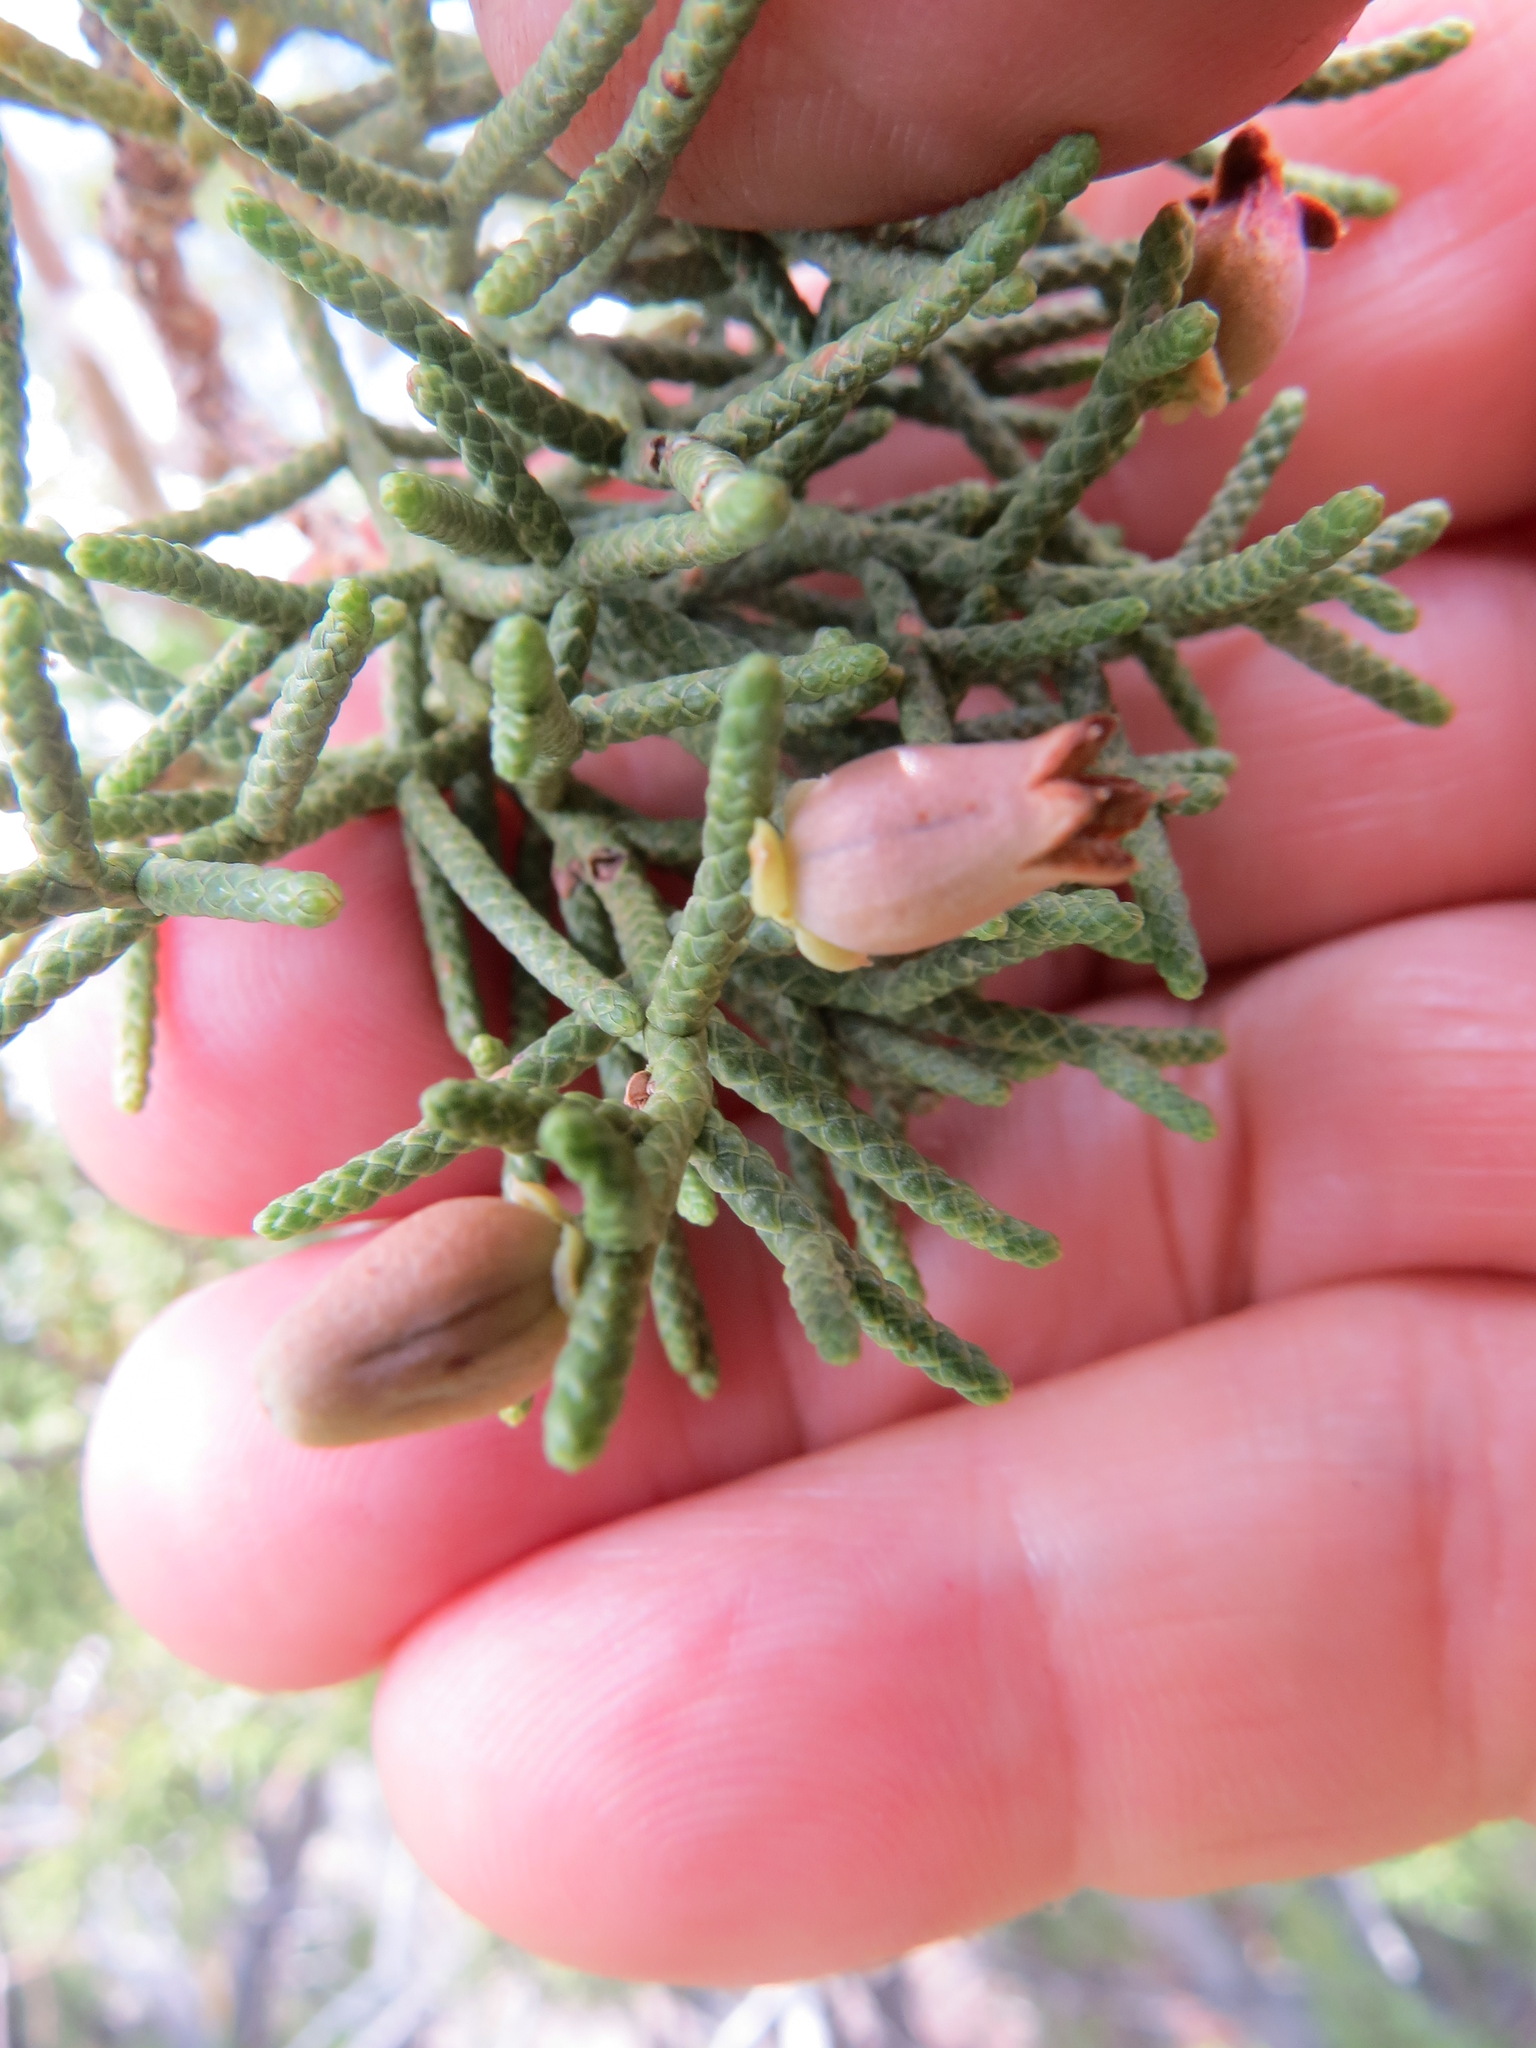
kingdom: Animalia
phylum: Arthropoda
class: Insecta
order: Diptera
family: Cecidomyiidae
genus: Walshomyia
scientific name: Walshomyia juniperina
